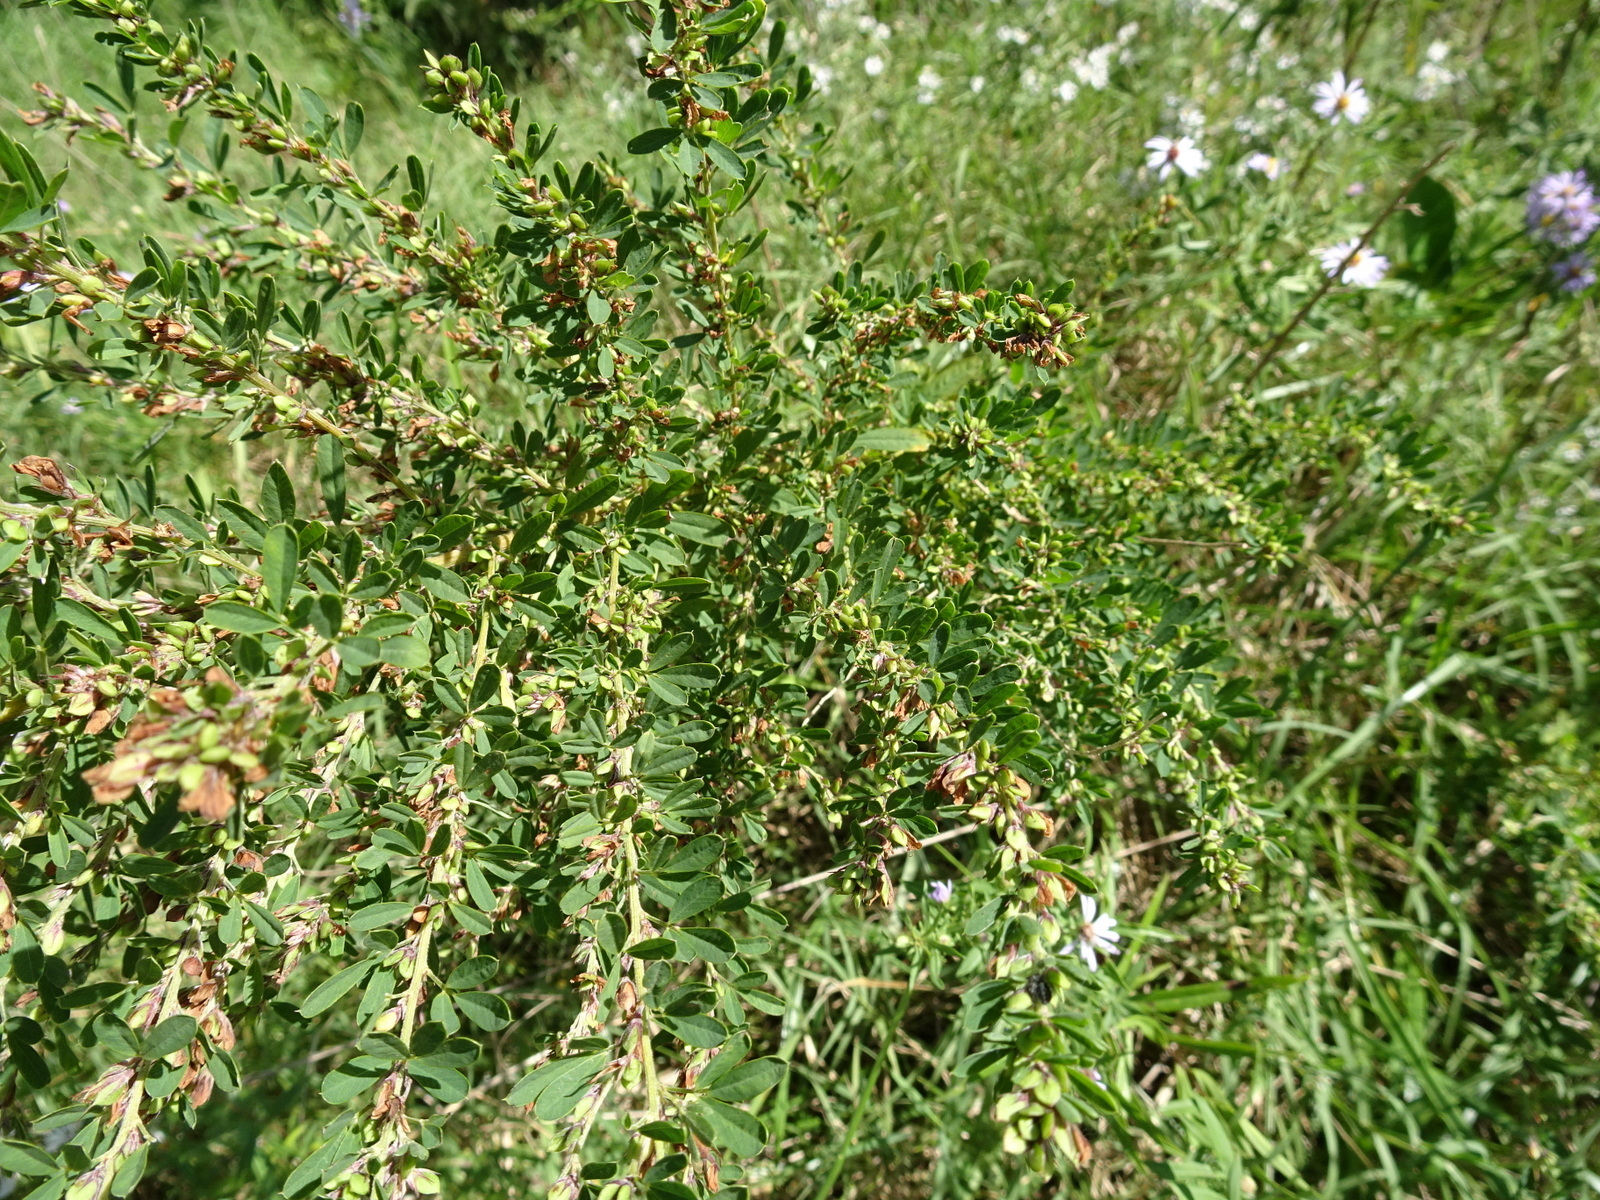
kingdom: Plantae
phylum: Tracheophyta
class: Magnoliopsida
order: Fabales
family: Fabaceae
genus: Lespedeza
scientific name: Lespedeza cuneata
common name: Chinese bush-clover
